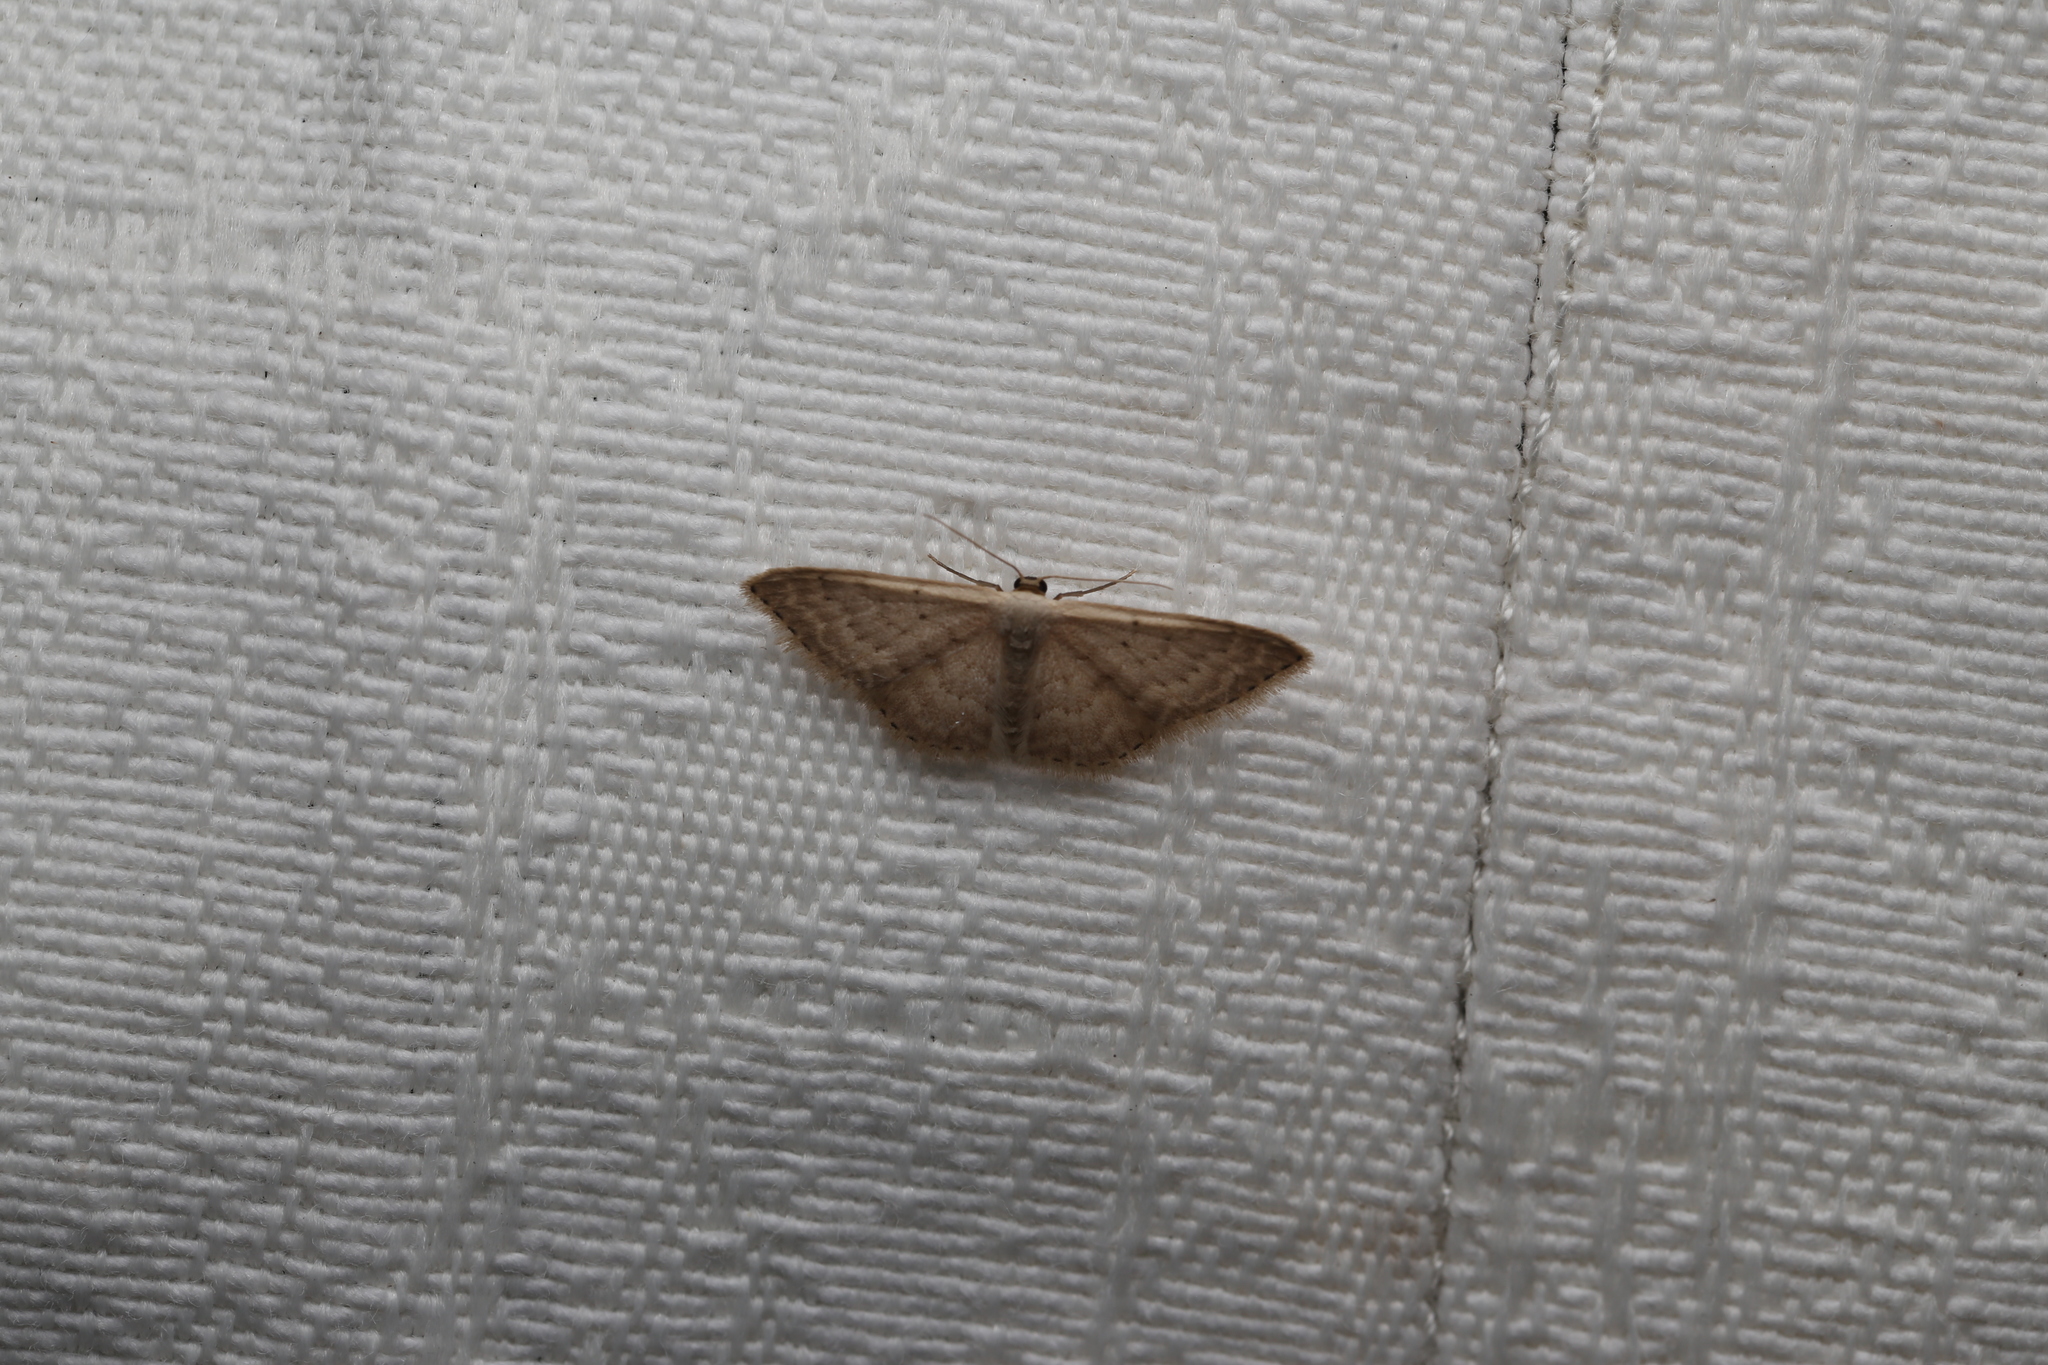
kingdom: Animalia
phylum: Arthropoda
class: Insecta
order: Lepidoptera
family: Geometridae
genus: Idaea
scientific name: Idaea eretmopus
